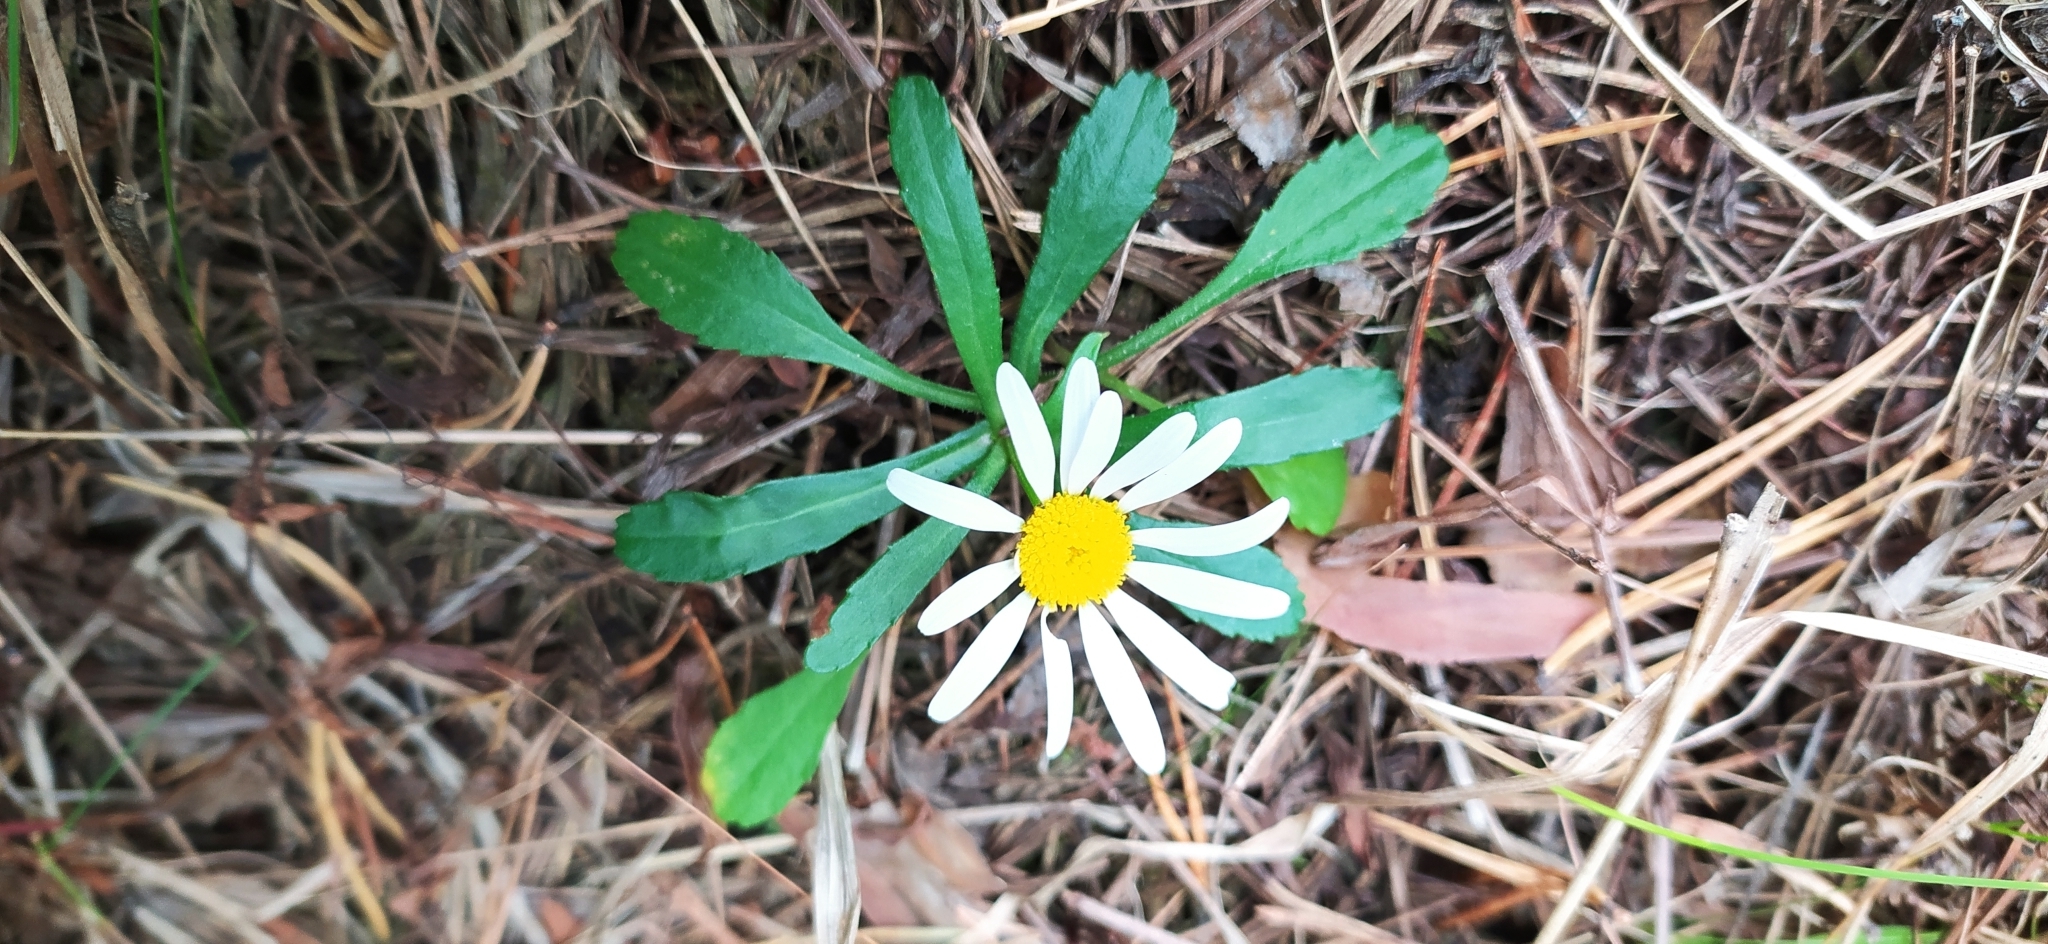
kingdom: Plantae
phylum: Tracheophyta
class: Magnoliopsida
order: Asterales
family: Asteraceae
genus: Leucanthemum
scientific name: Leucanthemum ircutianum
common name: Daisy
